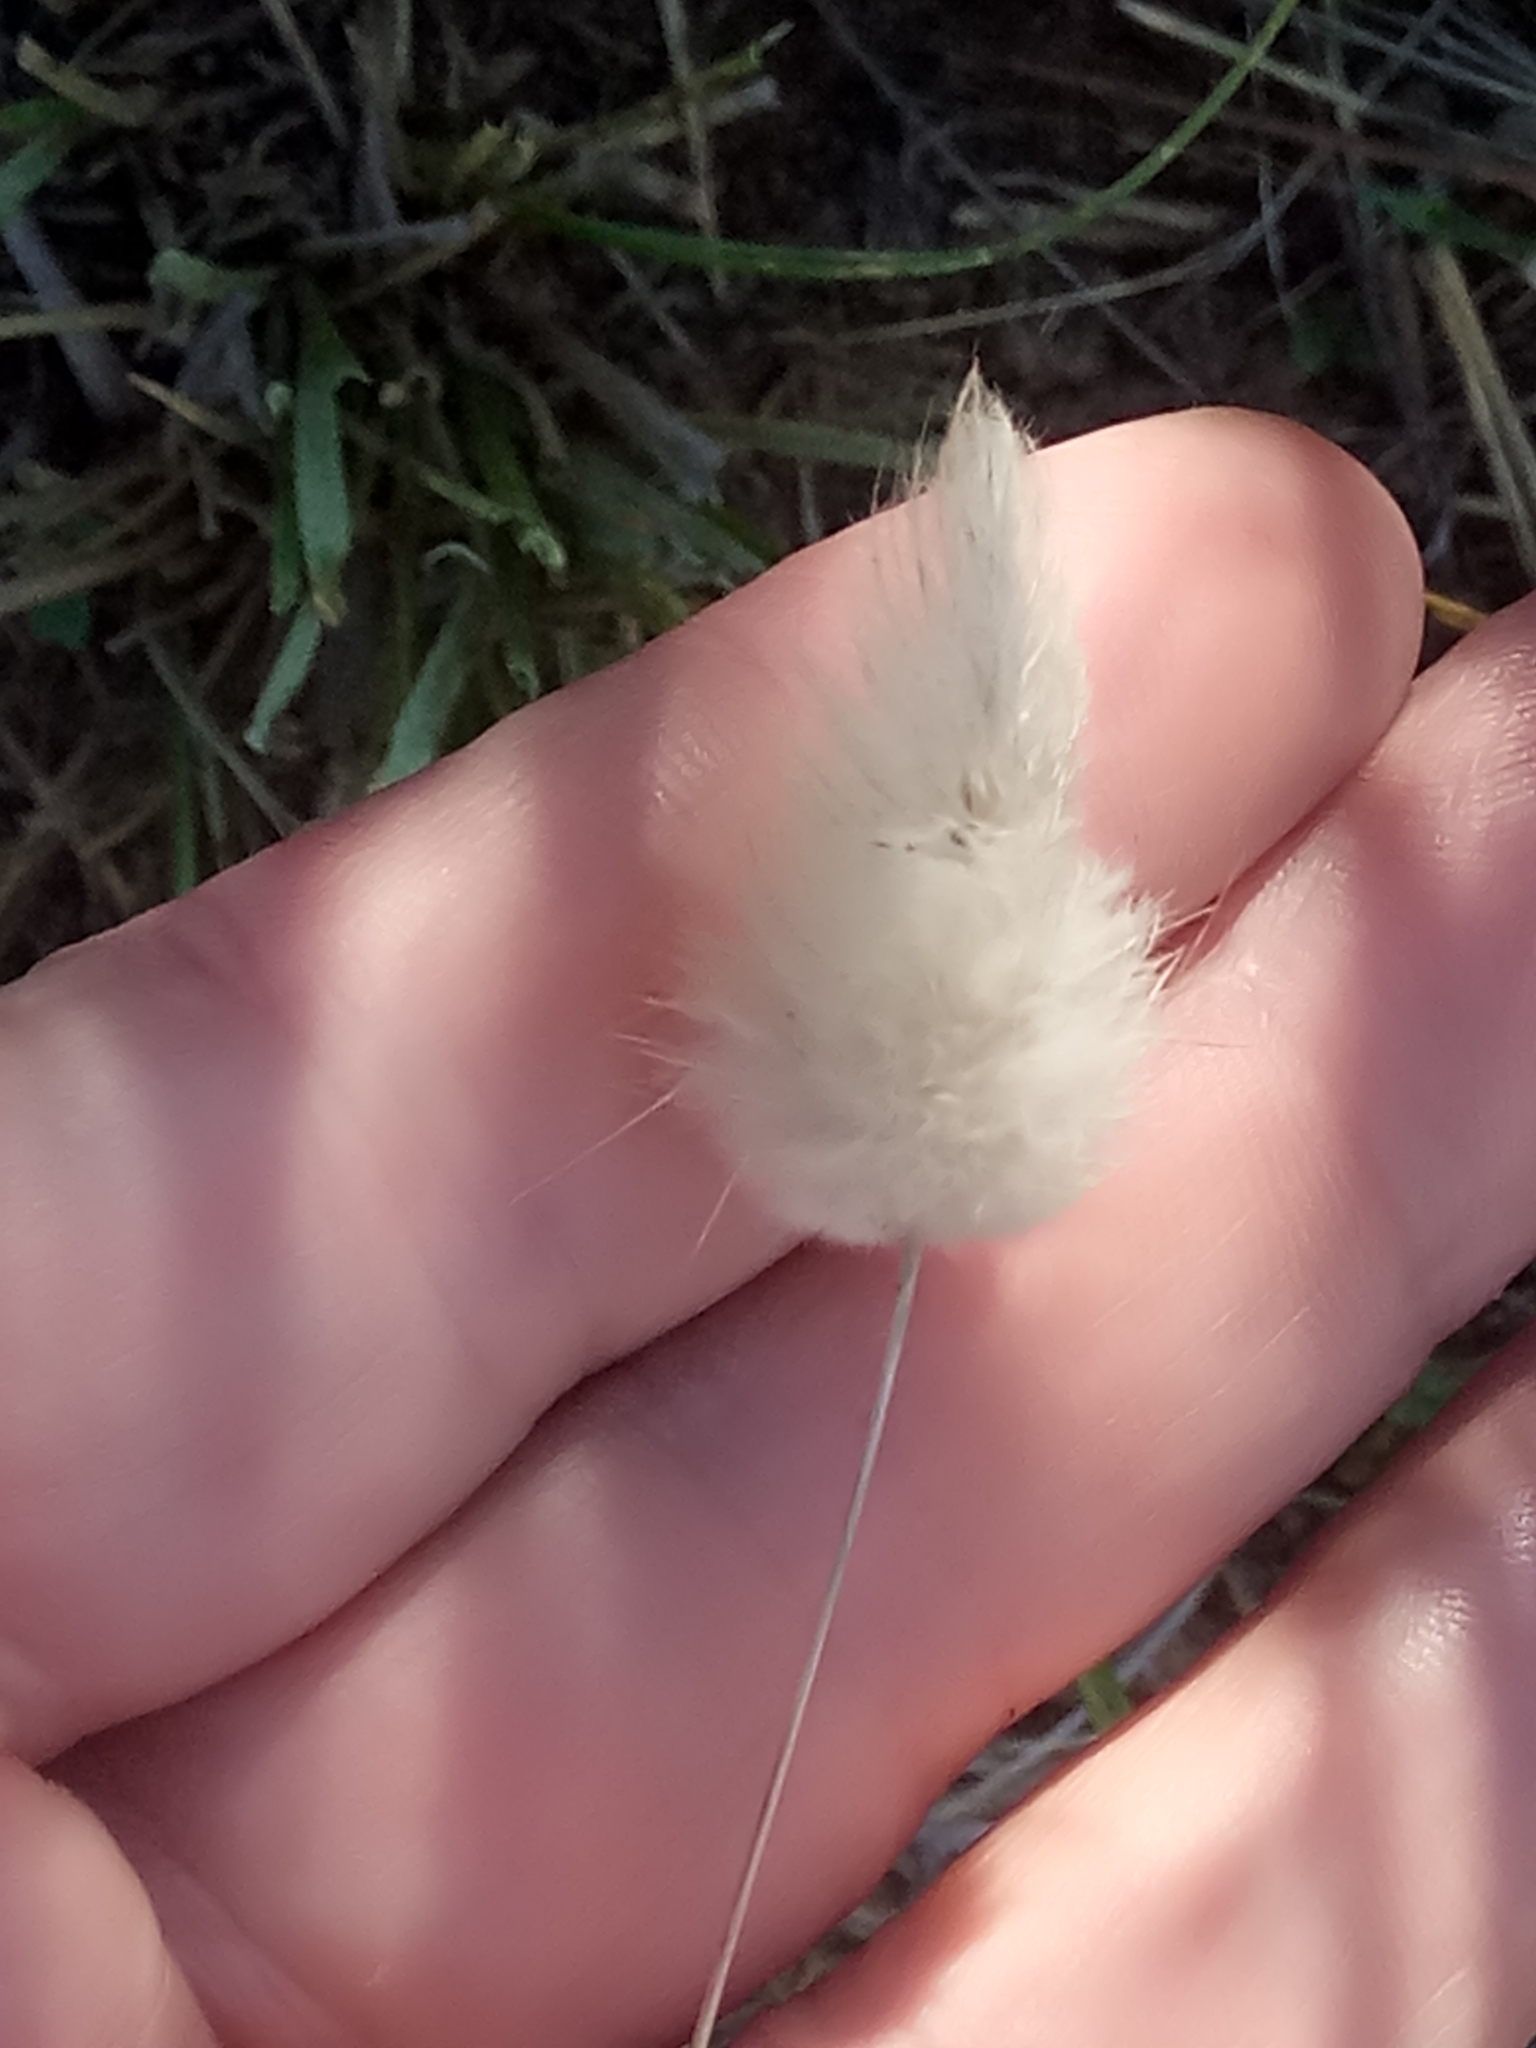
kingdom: Plantae
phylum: Tracheophyta
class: Liliopsida
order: Poales
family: Poaceae
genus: Lagurus
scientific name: Lagurus ovatus
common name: Hare's-tail
